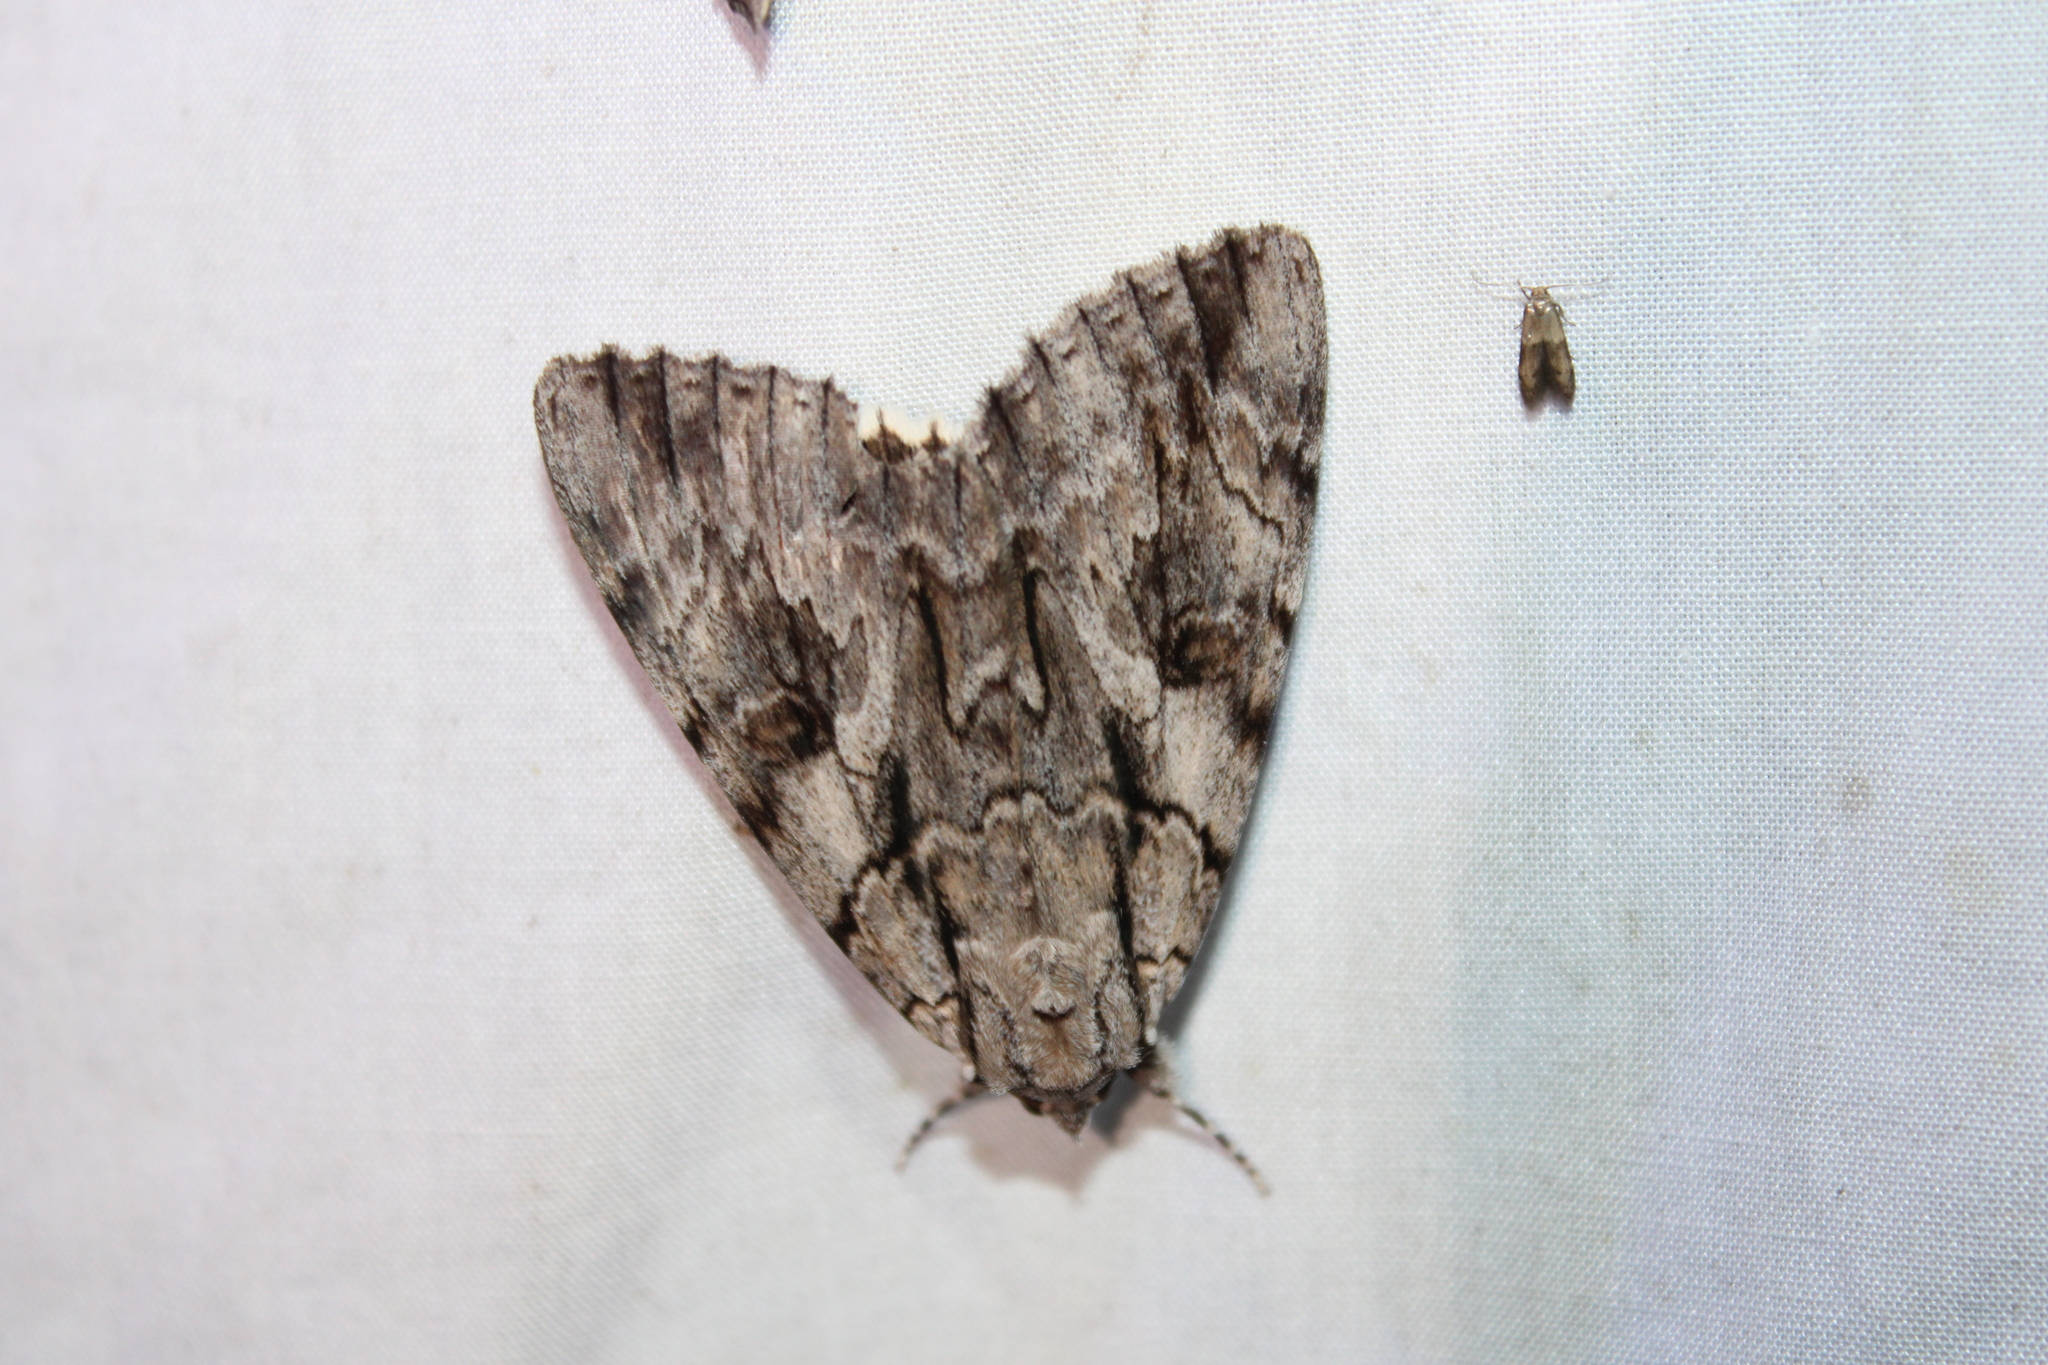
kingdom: Animalia
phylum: Arthropoda
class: Insecta
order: Lepidoptera
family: Erebidae
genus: Catocala
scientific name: Catocala retecta
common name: Yellow-gray underwing
